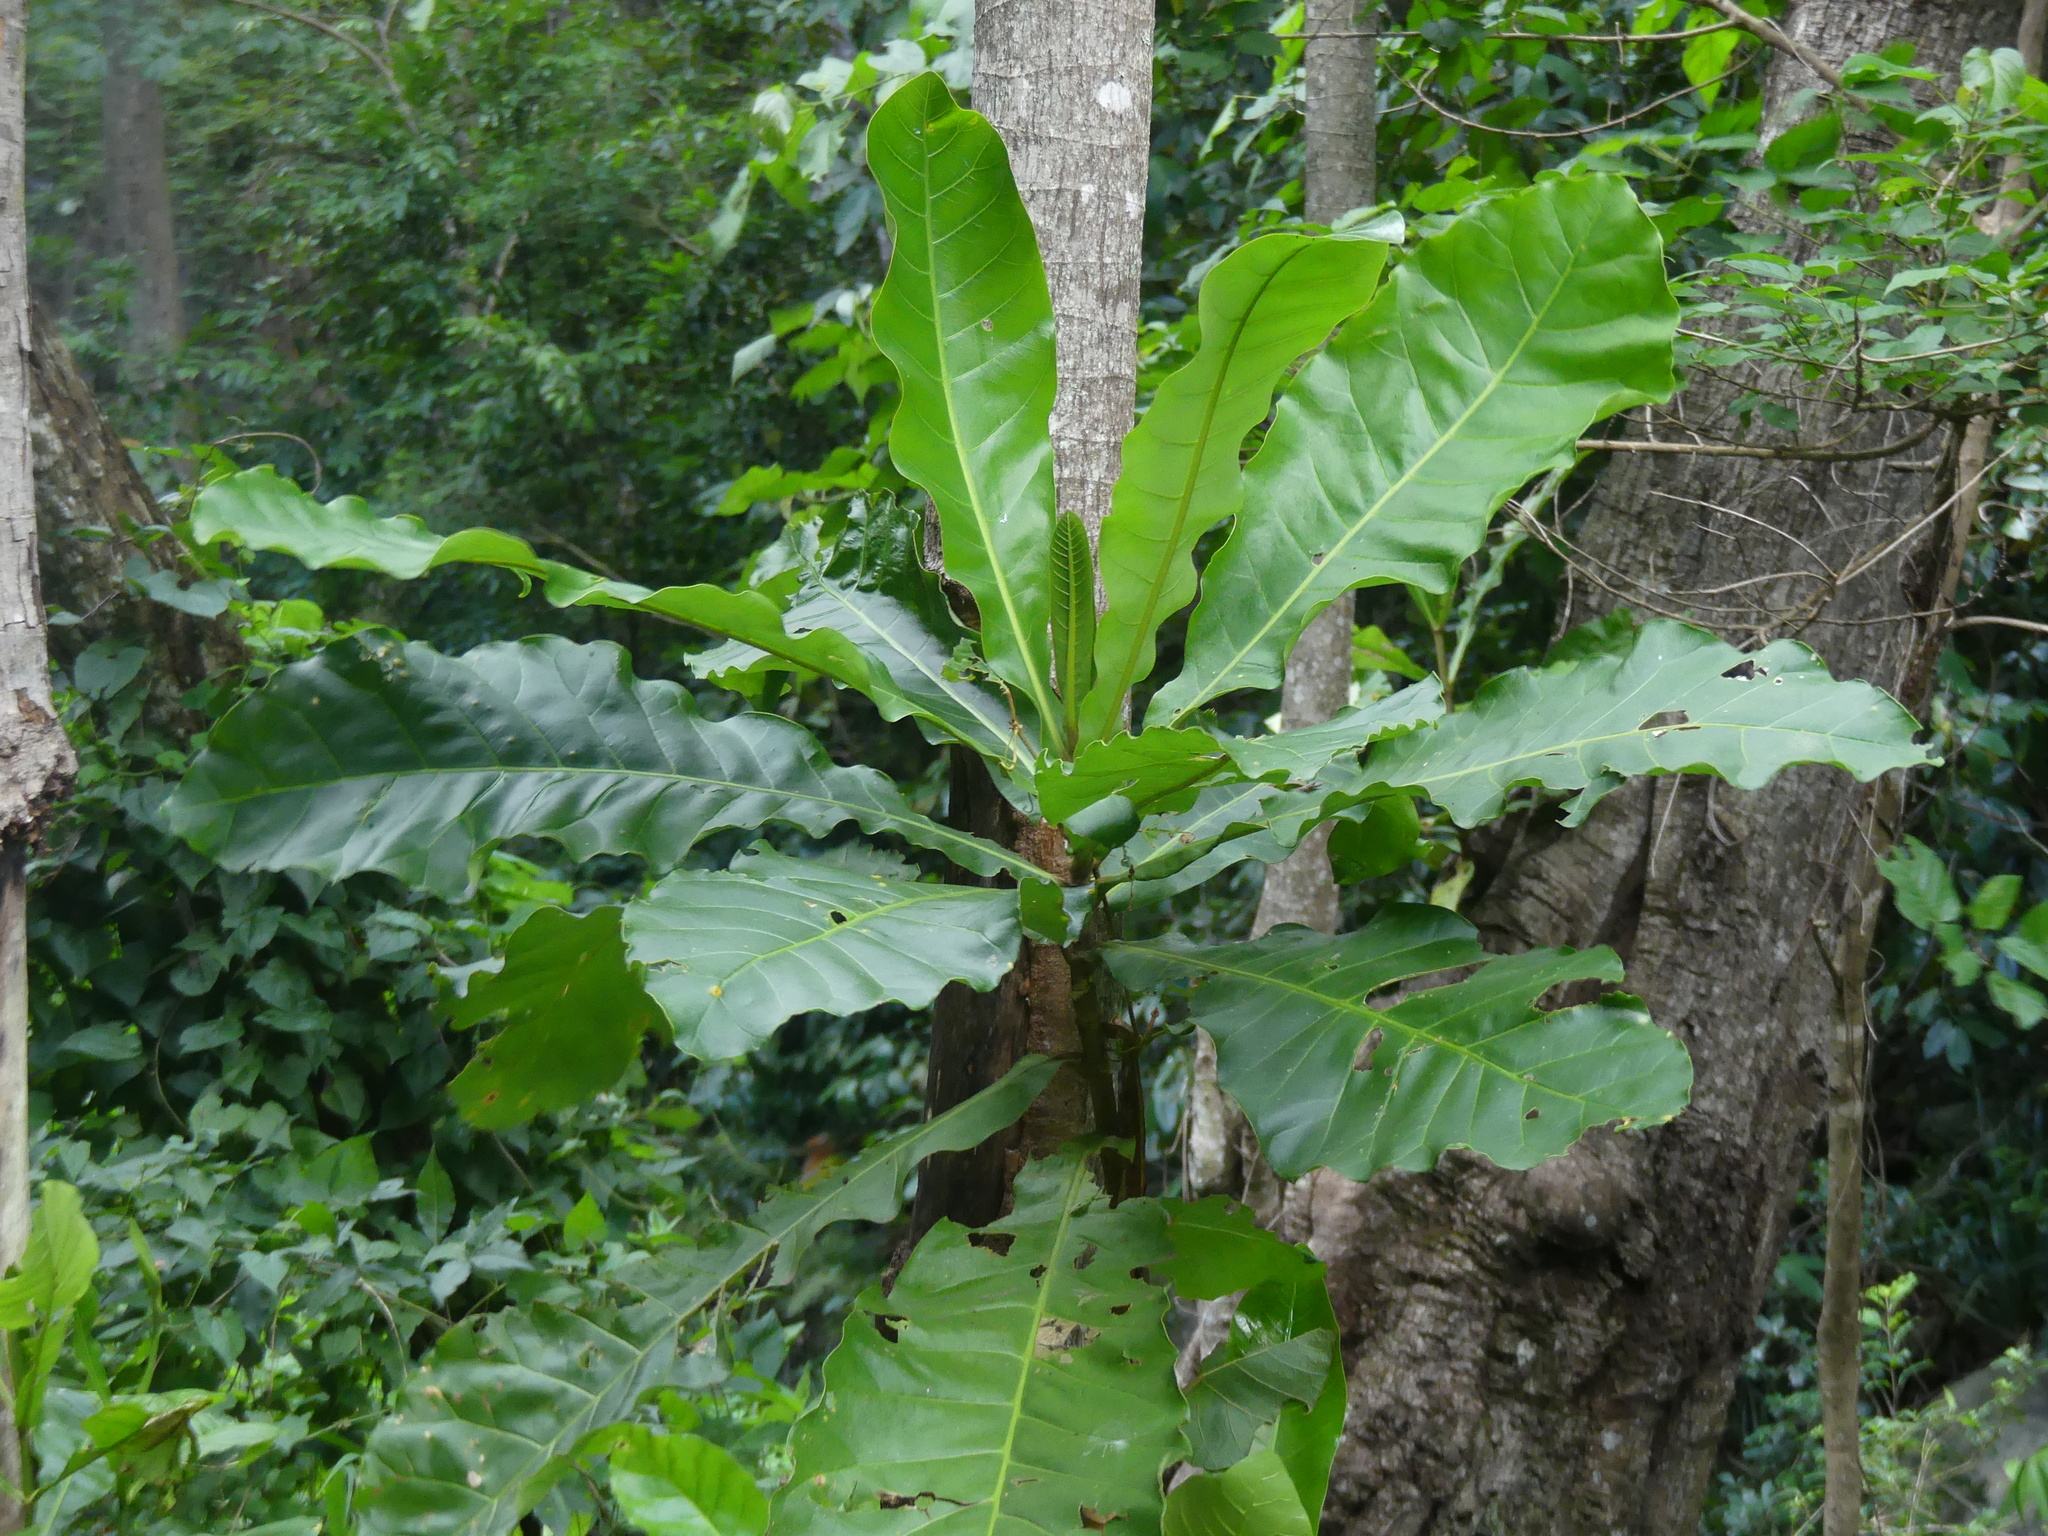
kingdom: Plantae
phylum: Tracheophyta
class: Magnoliopsida
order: Gentianales
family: Gentianaceae
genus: Anthocleista
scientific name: Anthocleista grandiflora
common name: Forest big-leaf
